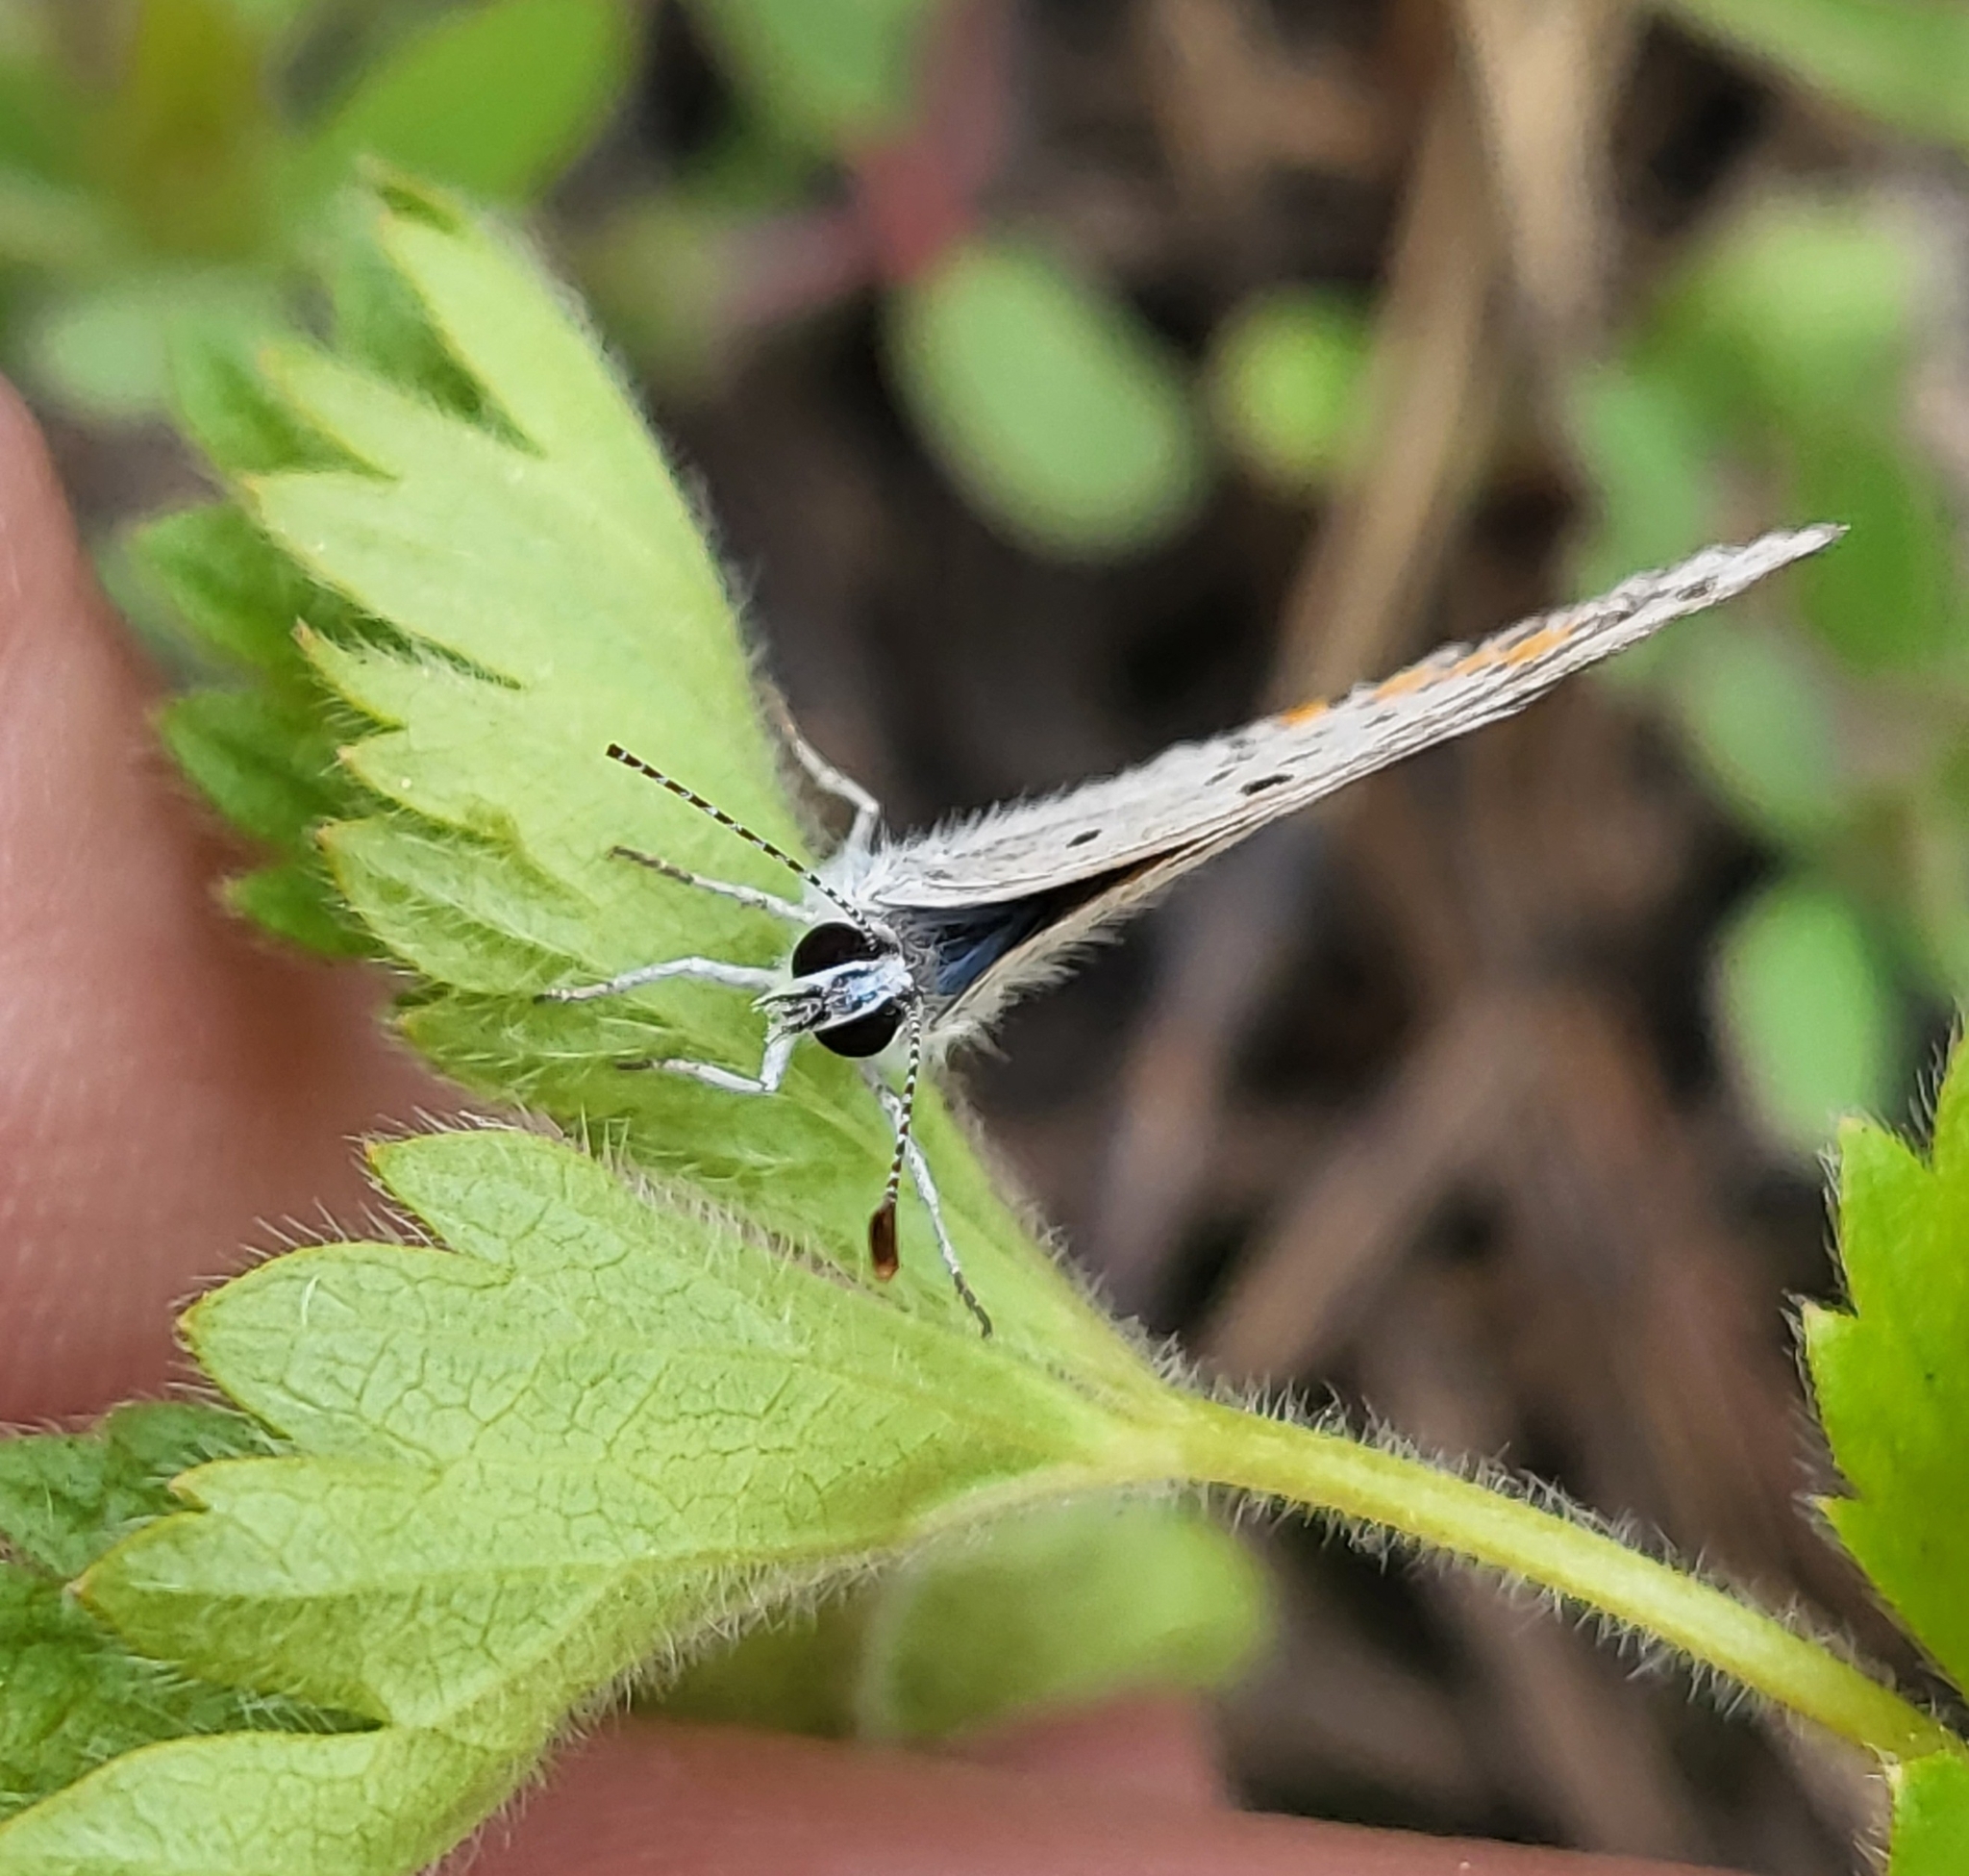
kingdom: Animalia
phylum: Arthropoda
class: Insecta
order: Lepidoptera
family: Lycaenidae
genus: Icaricia
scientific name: Icaricia acmon
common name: Acmon blue
